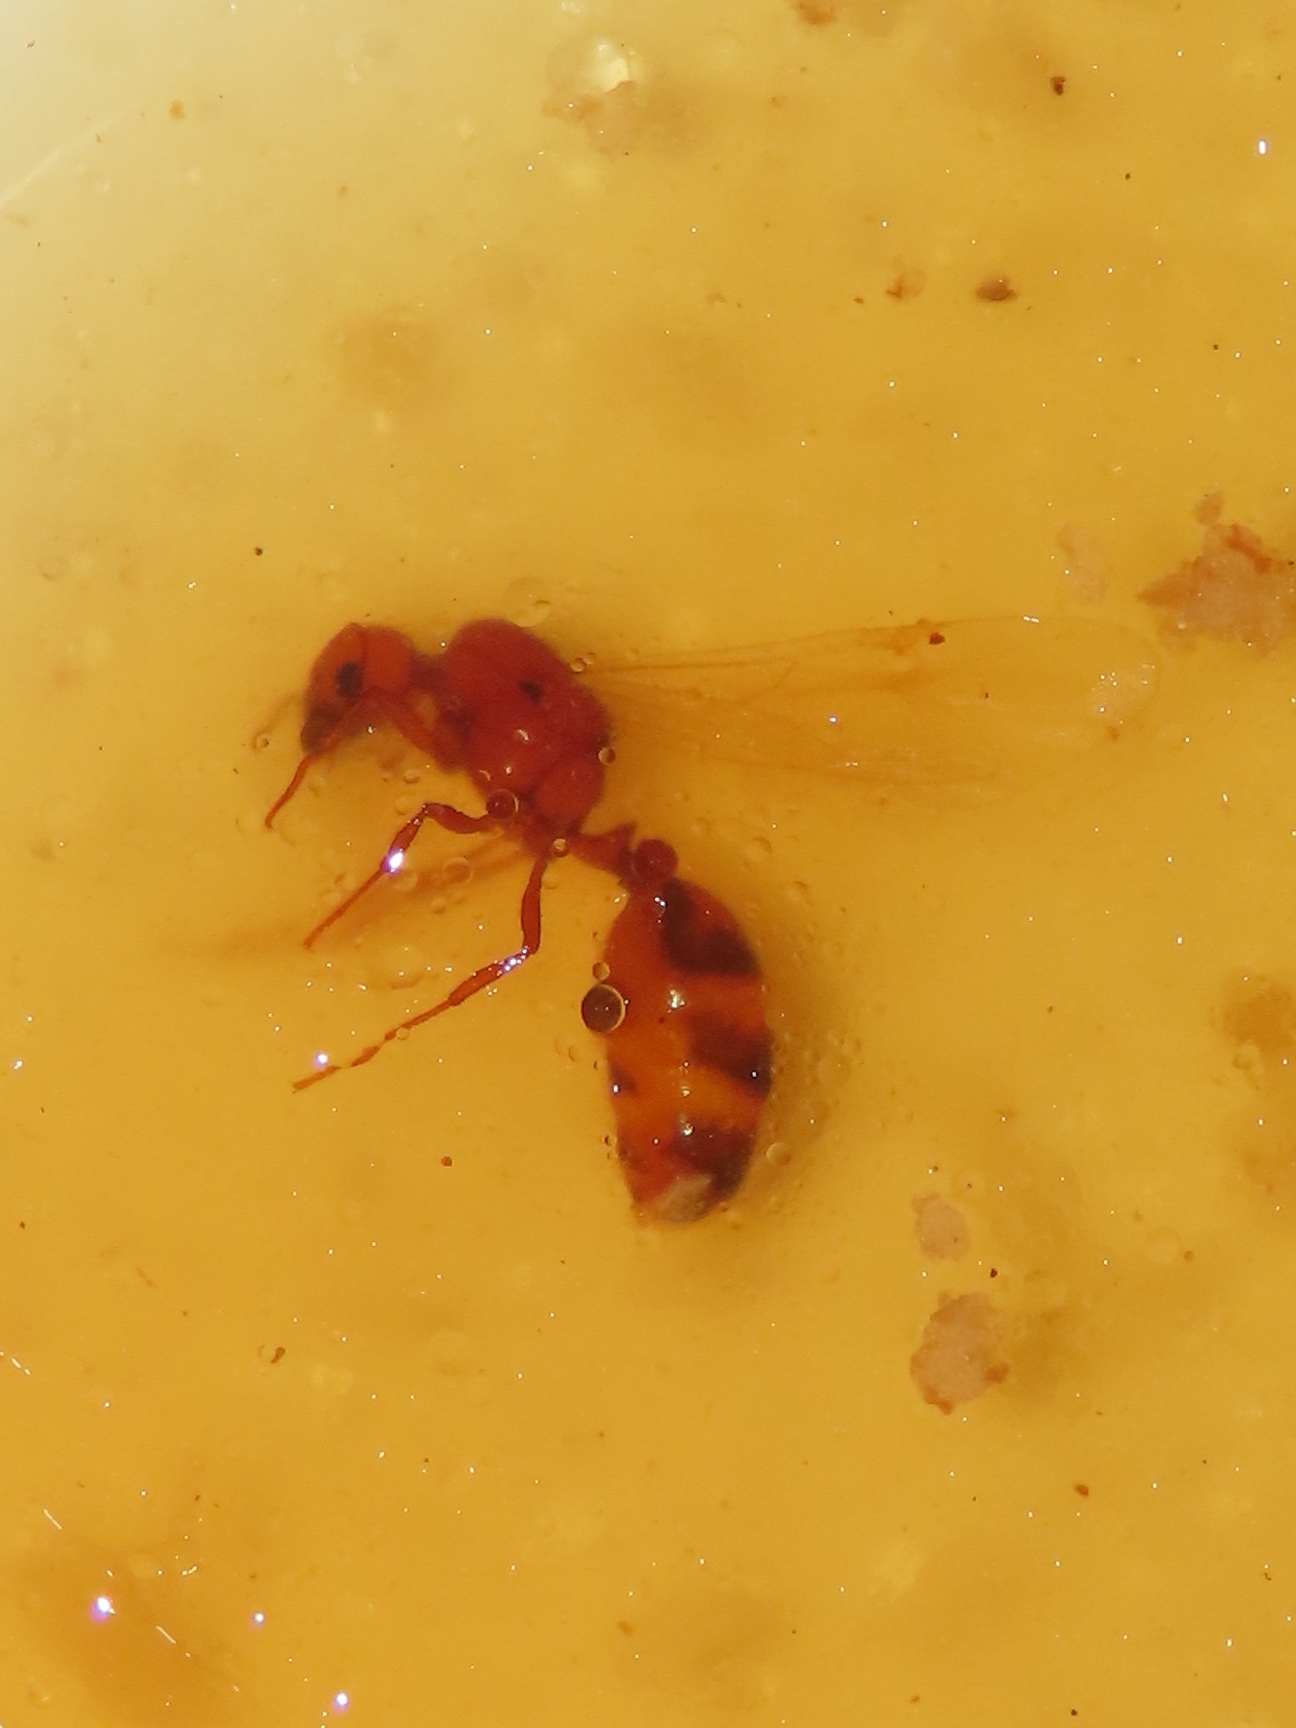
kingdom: Animalia
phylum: Arthropoda
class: Insecta
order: Hymenoptera
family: Formicidae
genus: Solenopsis
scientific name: Solenopsis geminata
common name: Tropical fire ant
